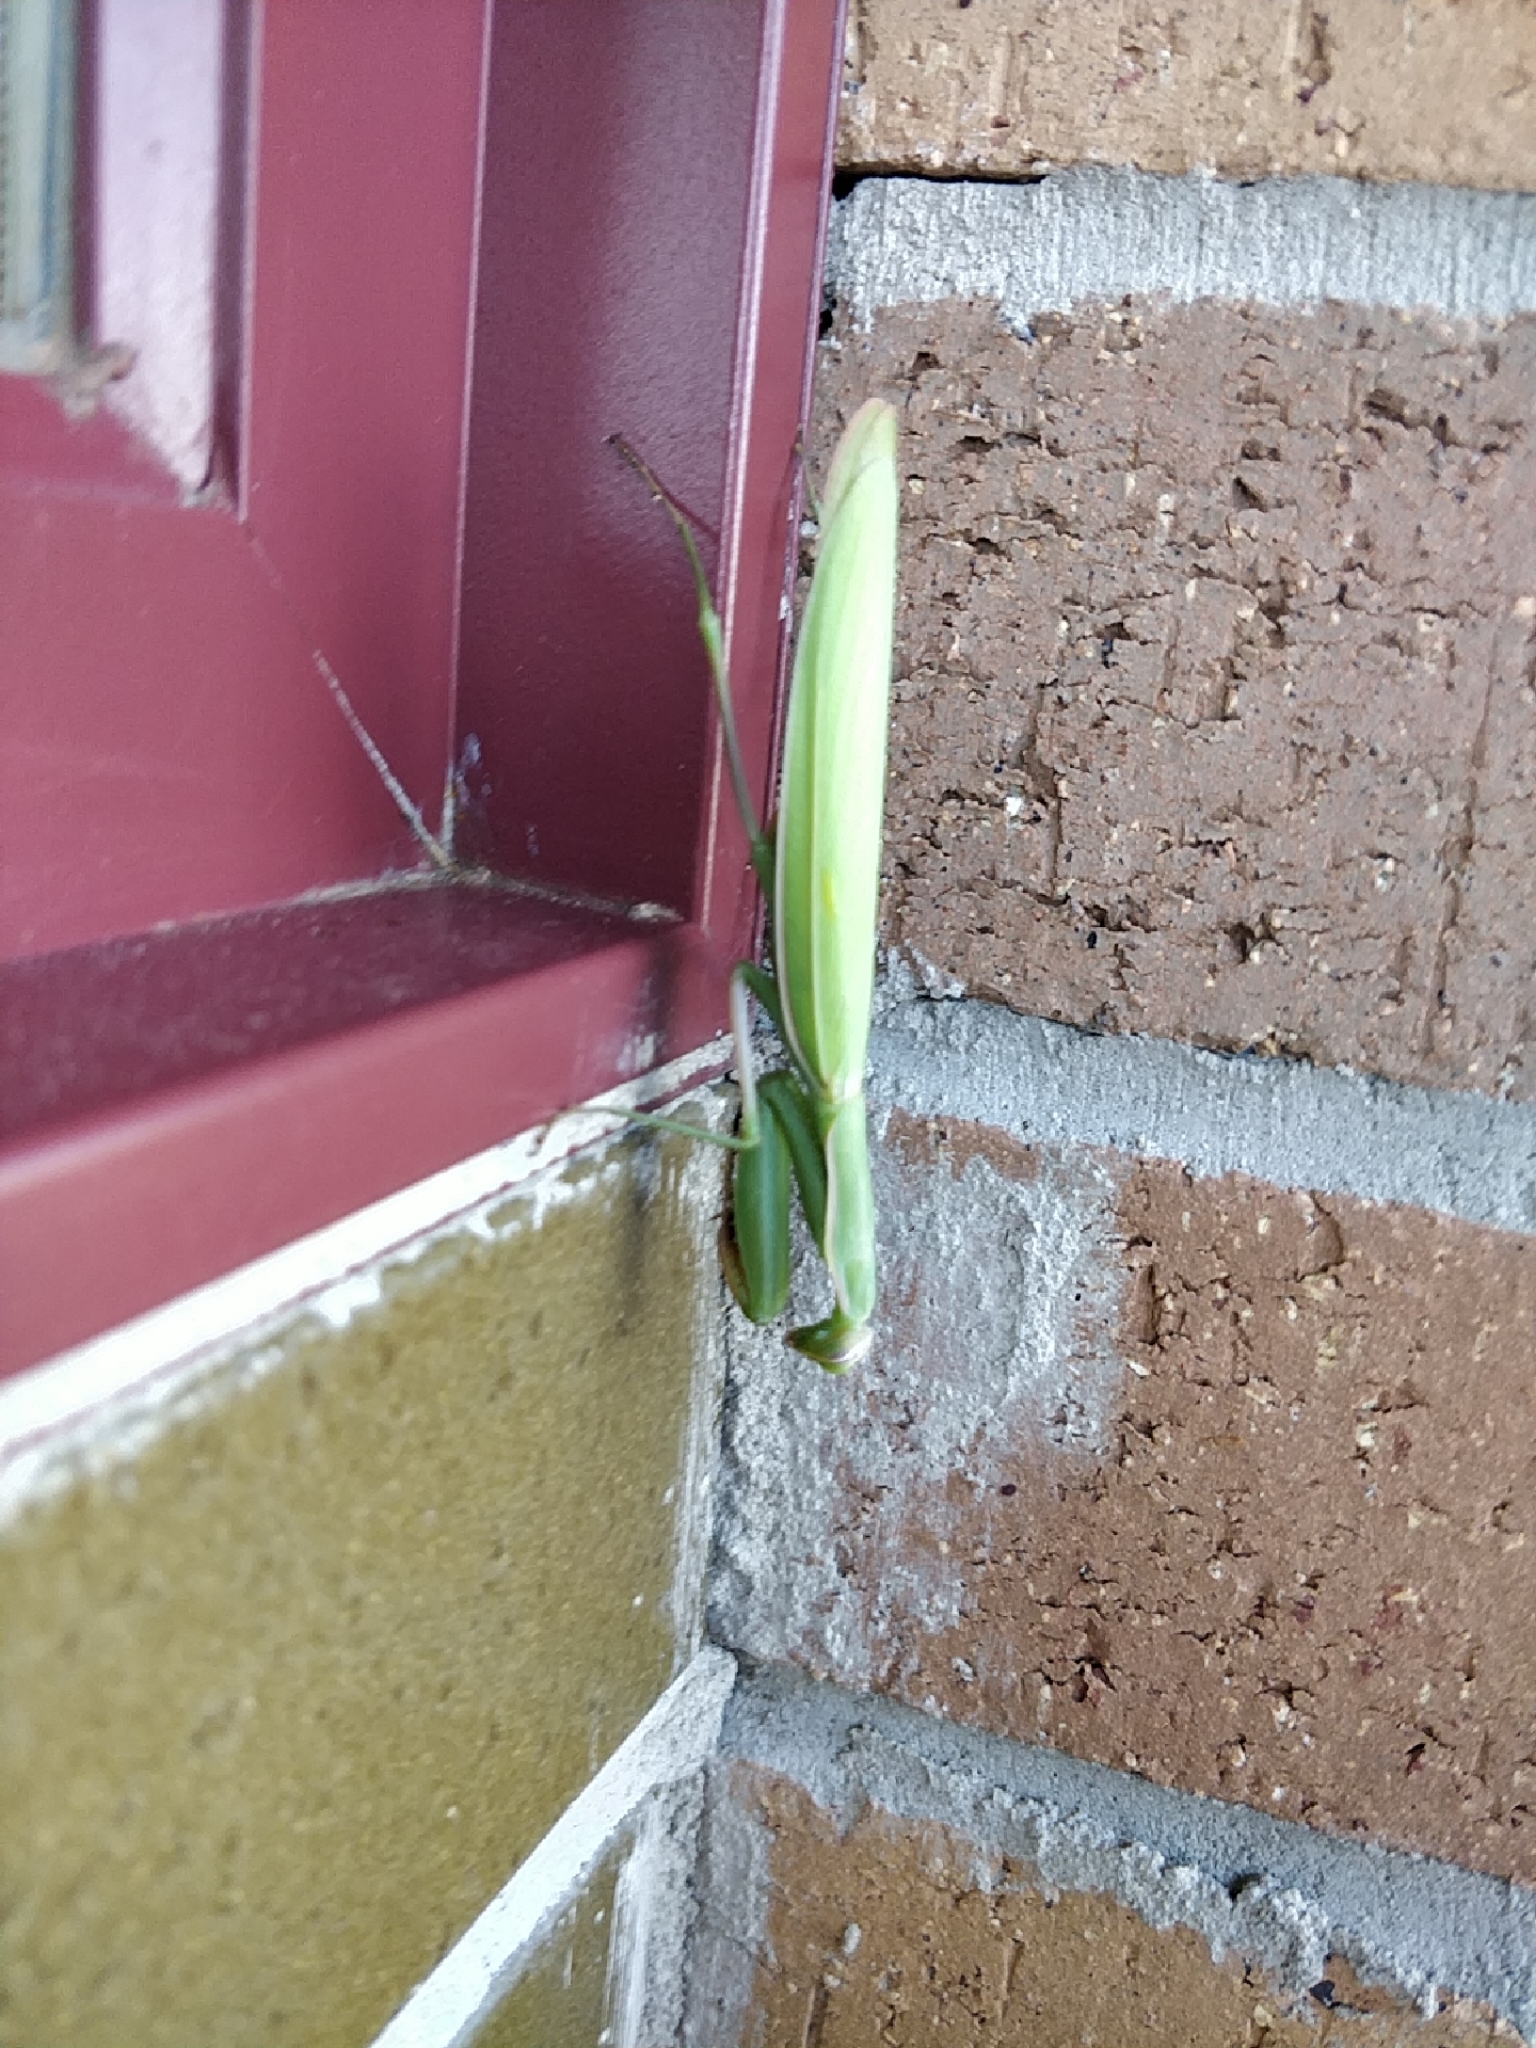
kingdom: Animalia
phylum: Arthropoda
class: Insecta
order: Mantodea
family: Mantidae
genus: Mantis
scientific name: Mantis religiosa
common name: Praying mantis
